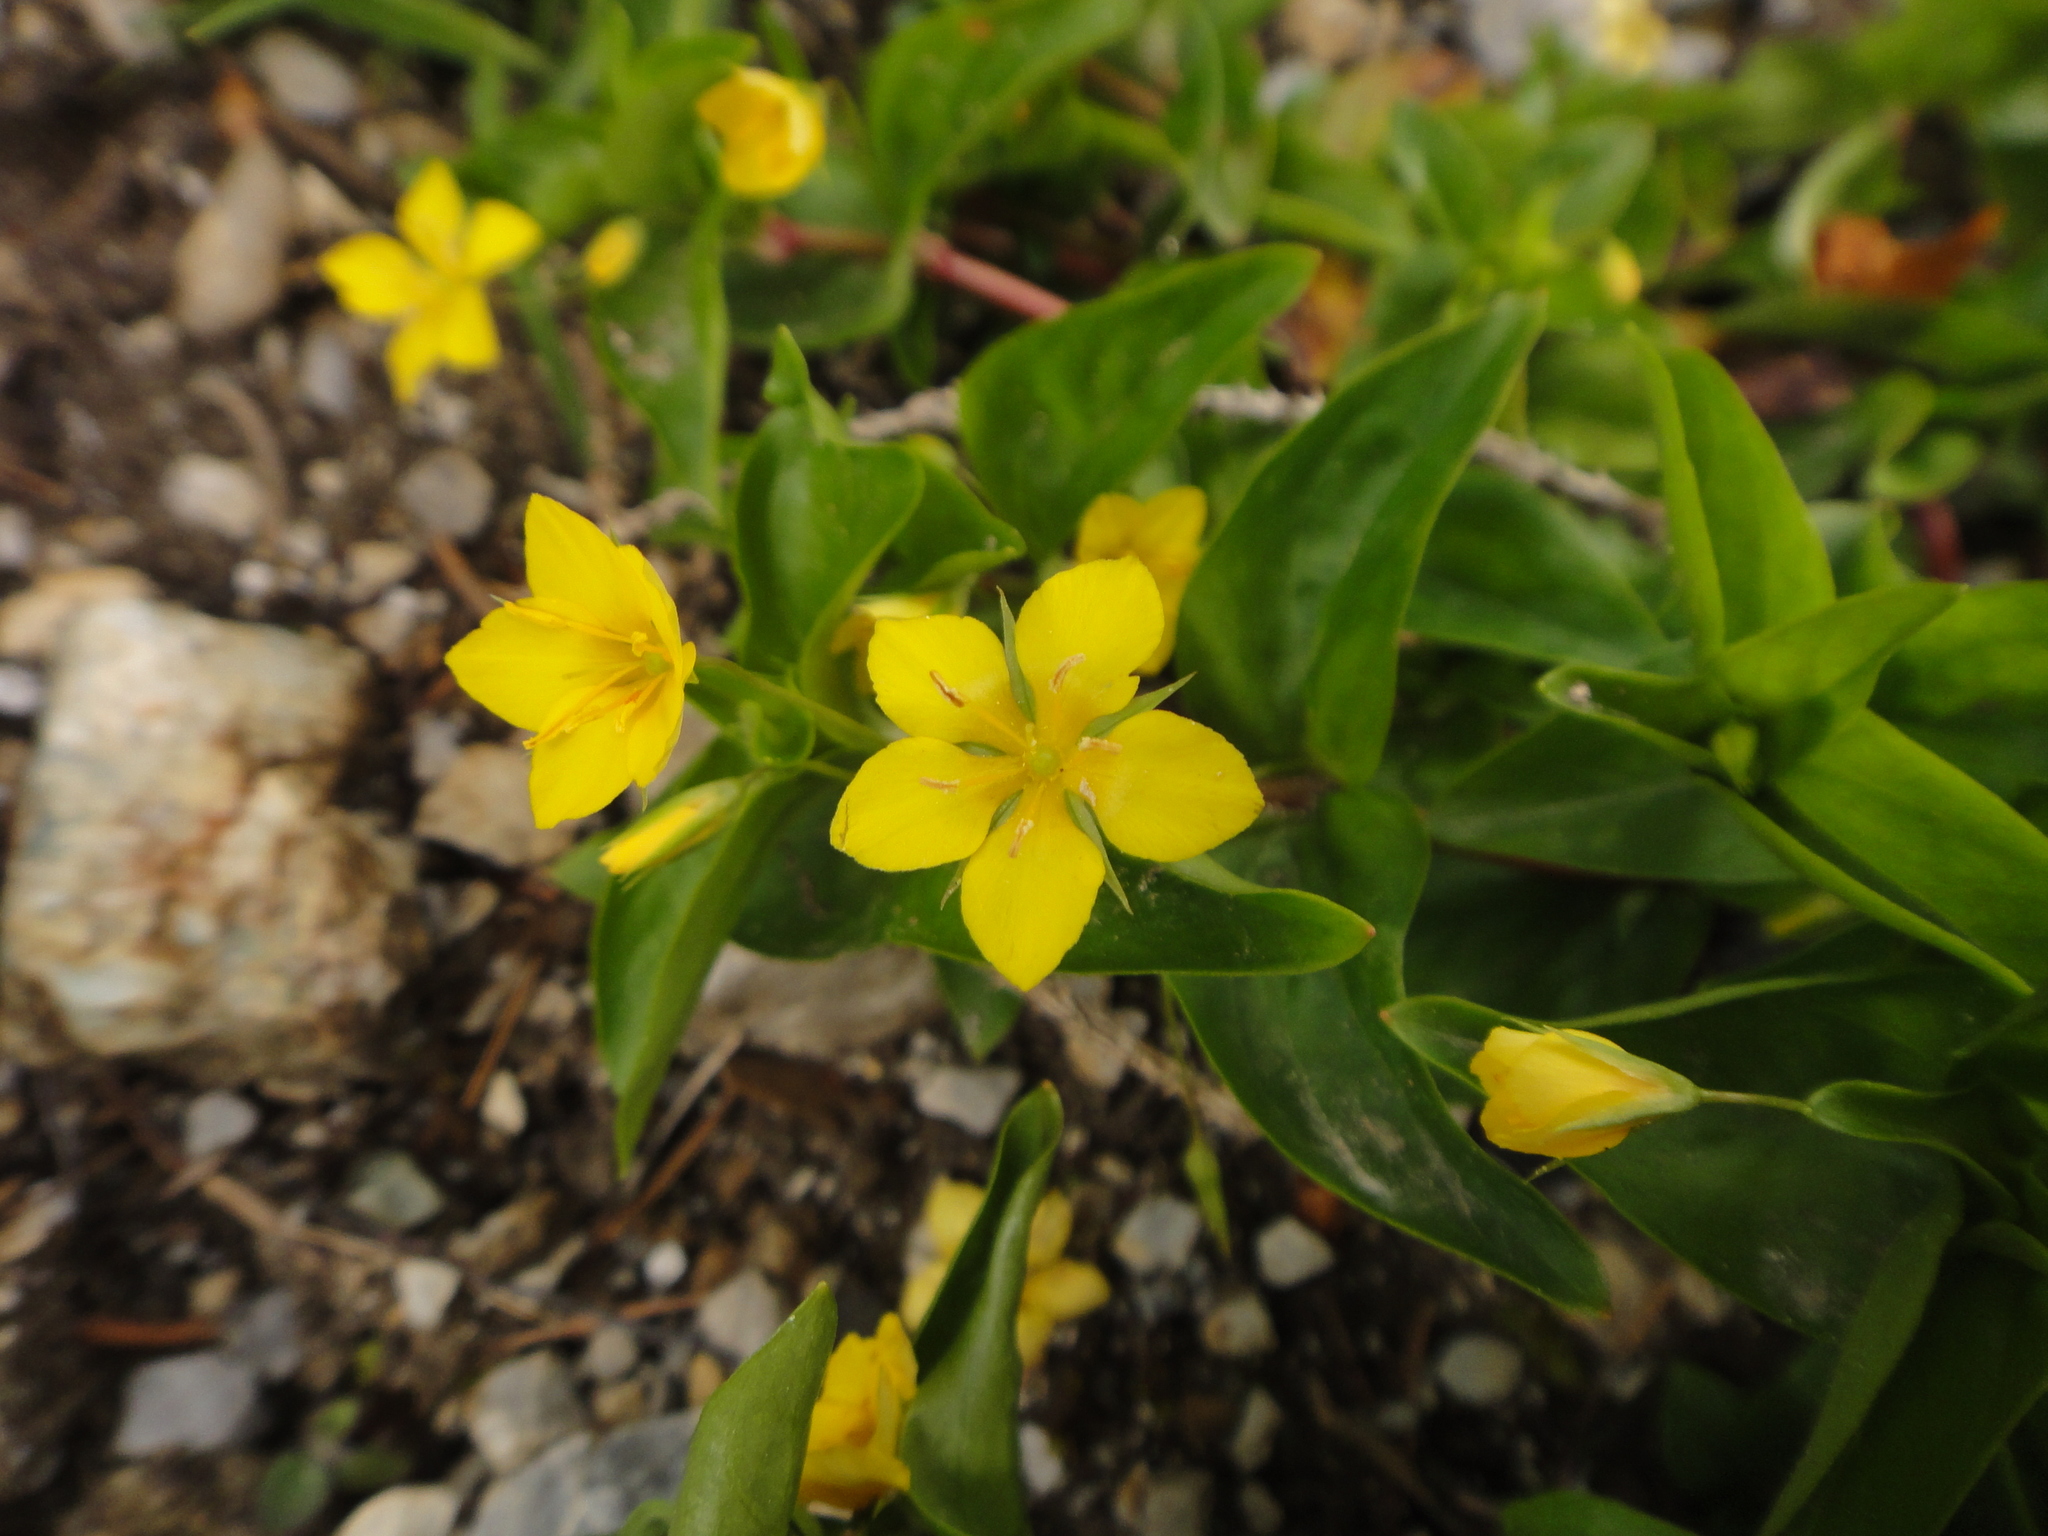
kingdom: Plantae
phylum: Tracheophyta
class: Magnoliopsida
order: Ericales
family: Primulaceae
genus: Lysimachia
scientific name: Lysimachia nemorum
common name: Yellow pimpernel
